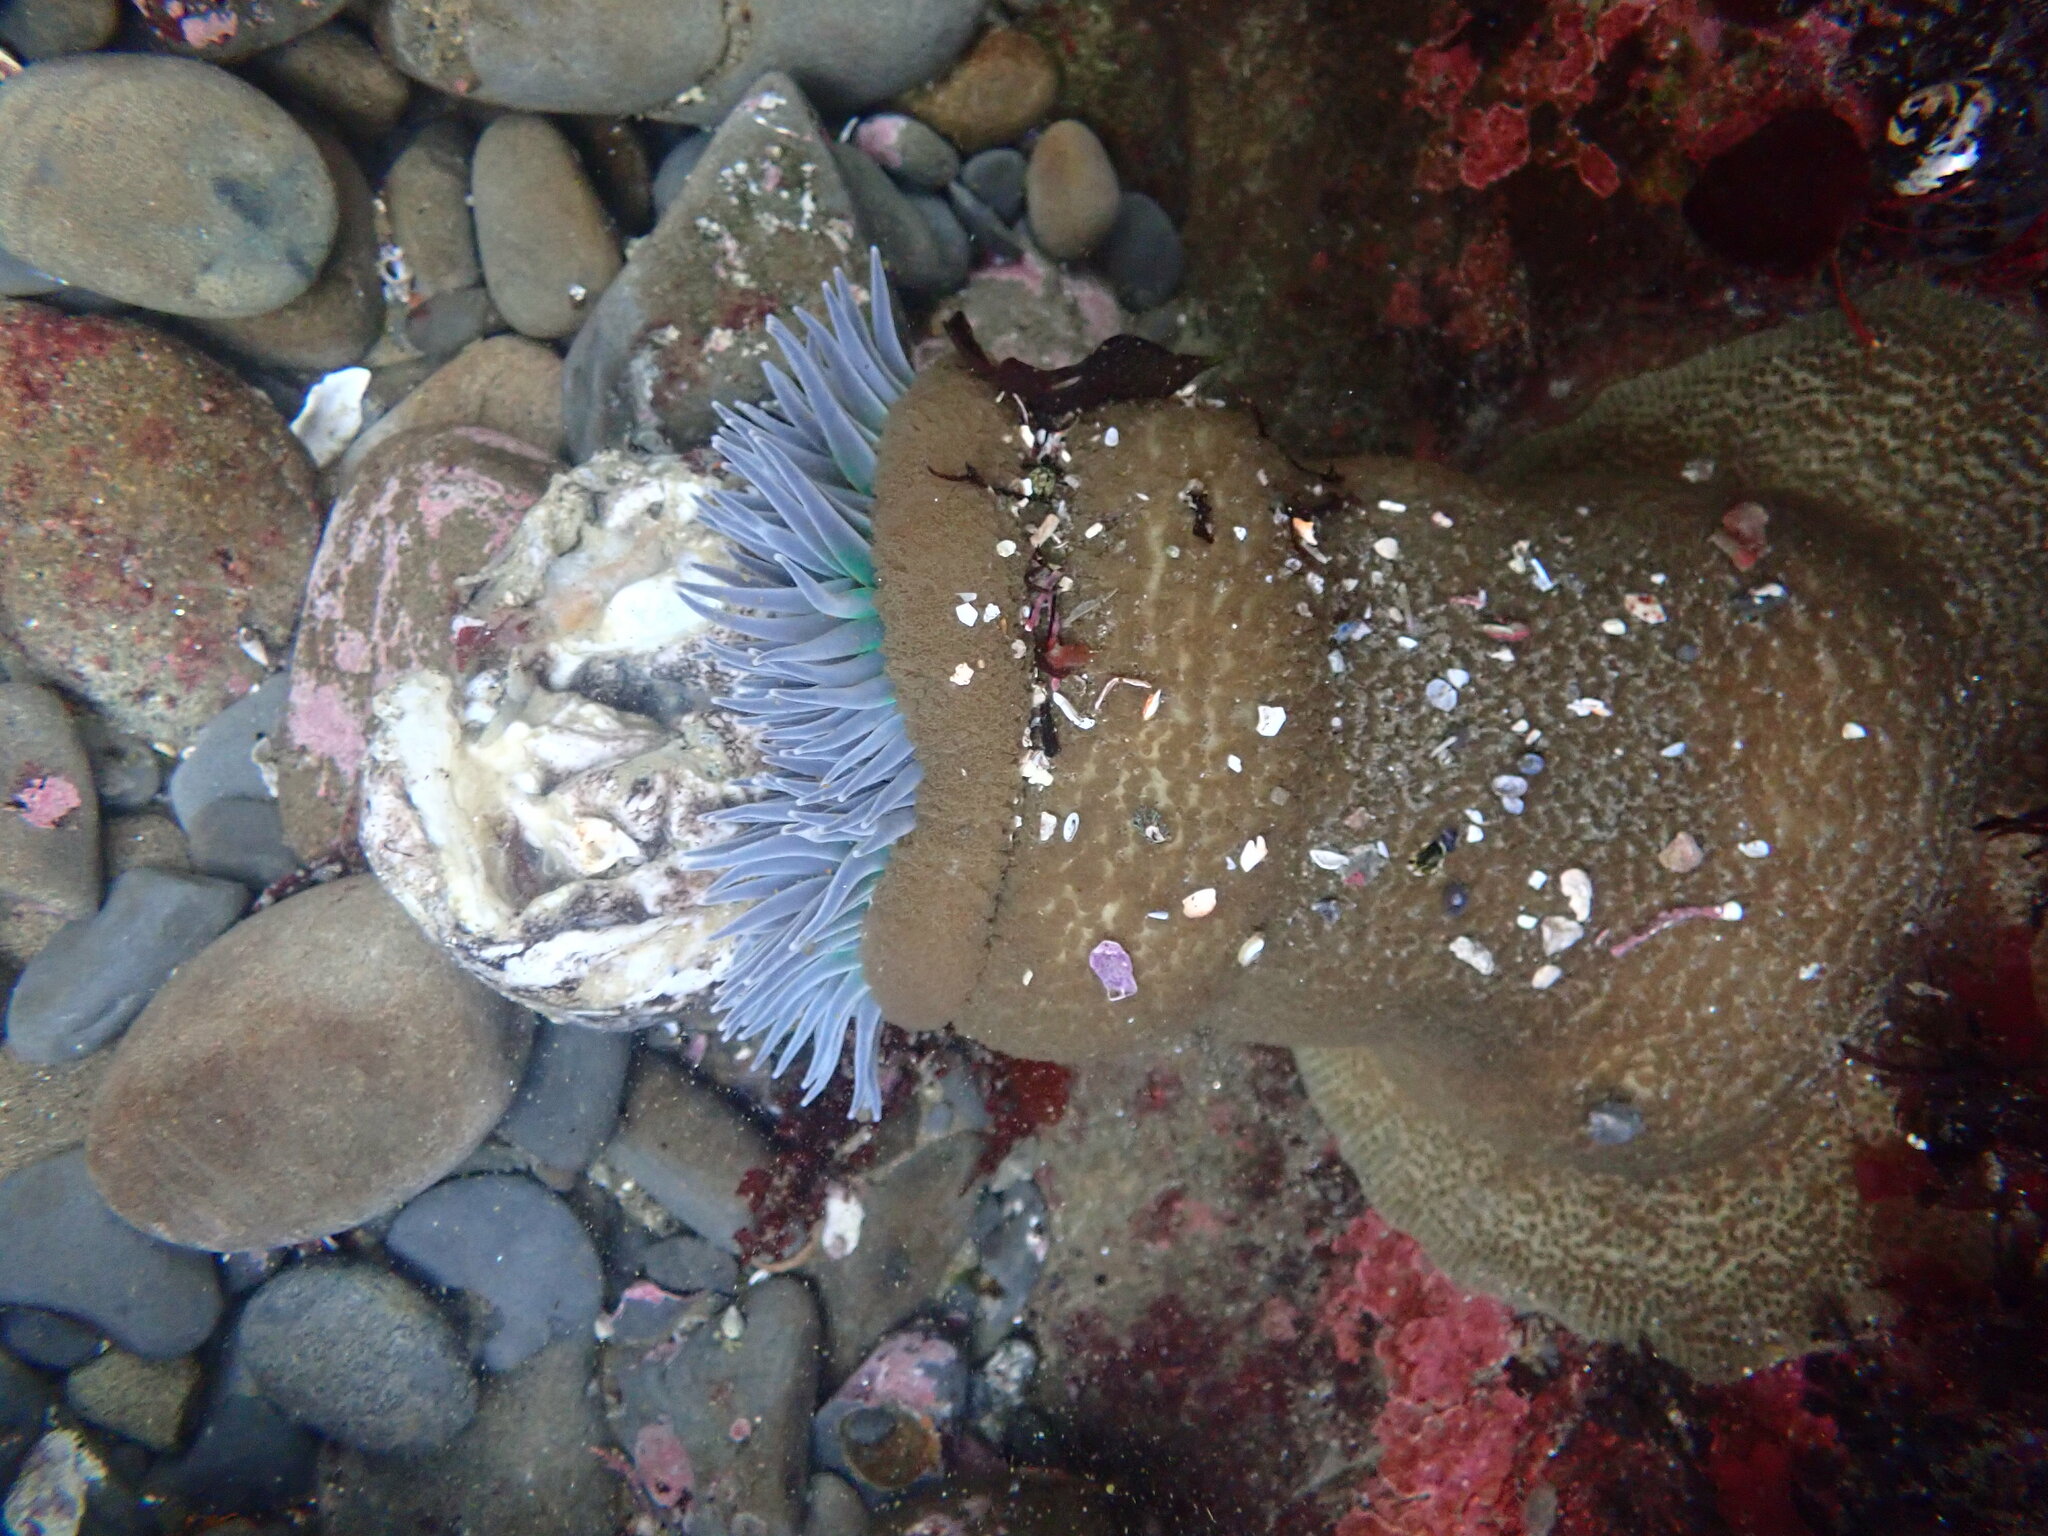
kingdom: Animalia
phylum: Cnidaria
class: Anthozoa
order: Actiniaria
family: Actiniidae
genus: Anthopleura
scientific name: Anthopleura xanthogrammica
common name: Giant green anemone
